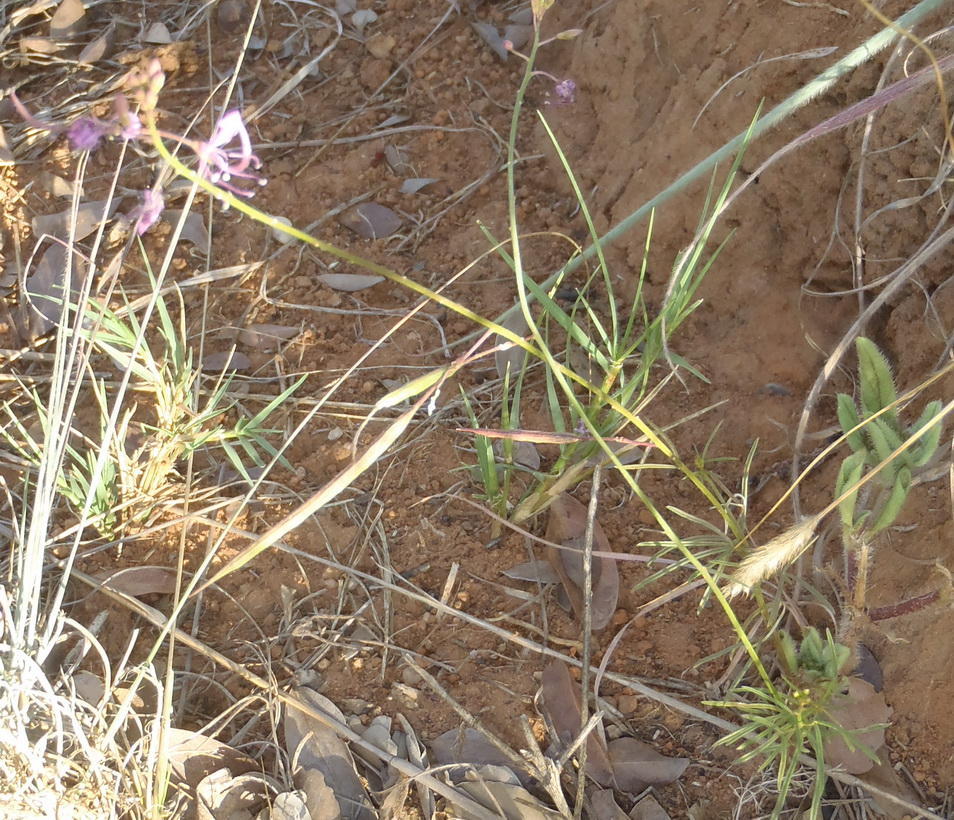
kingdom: Plantae
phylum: Tracheophyta
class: Magnoliopsida
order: Brassicales
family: Cleomaceae
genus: Sieruela
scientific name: Sieruela maculata
